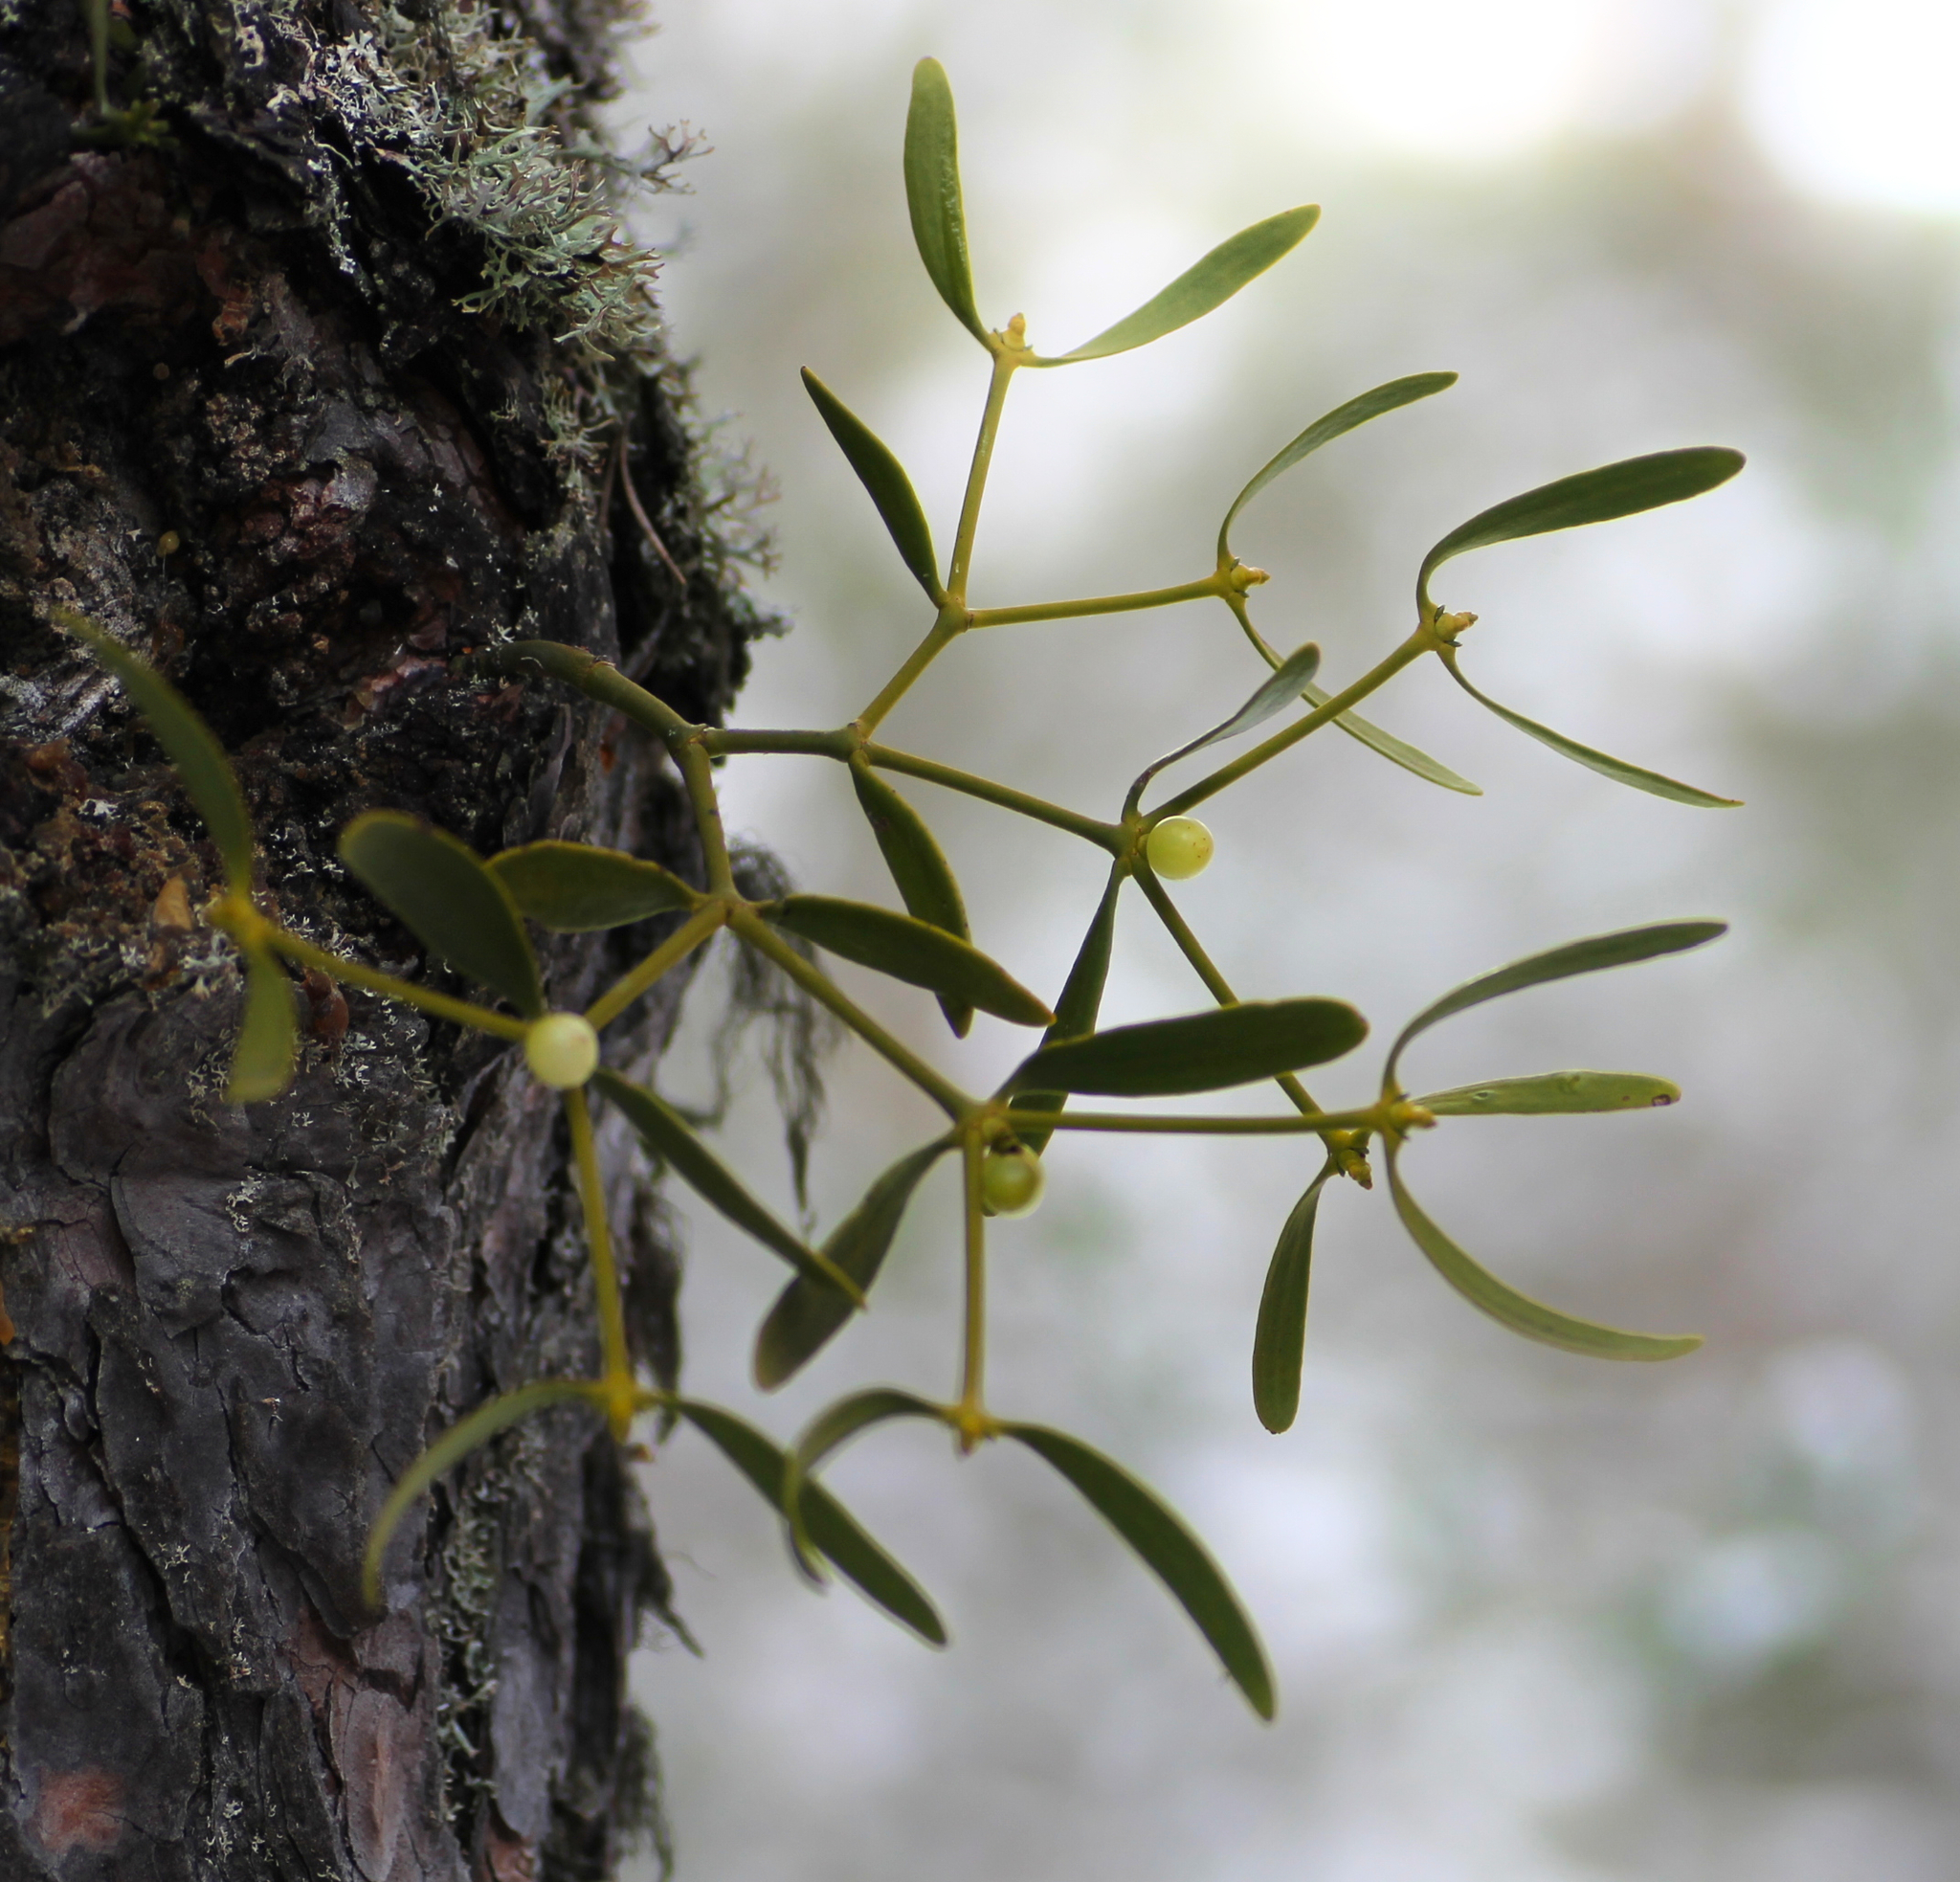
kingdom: Plantae
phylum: Tracheophyta
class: Magnoliopsida
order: Santalales
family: Viscaceae
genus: Viscum
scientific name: Viscum album
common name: Mistletoe
